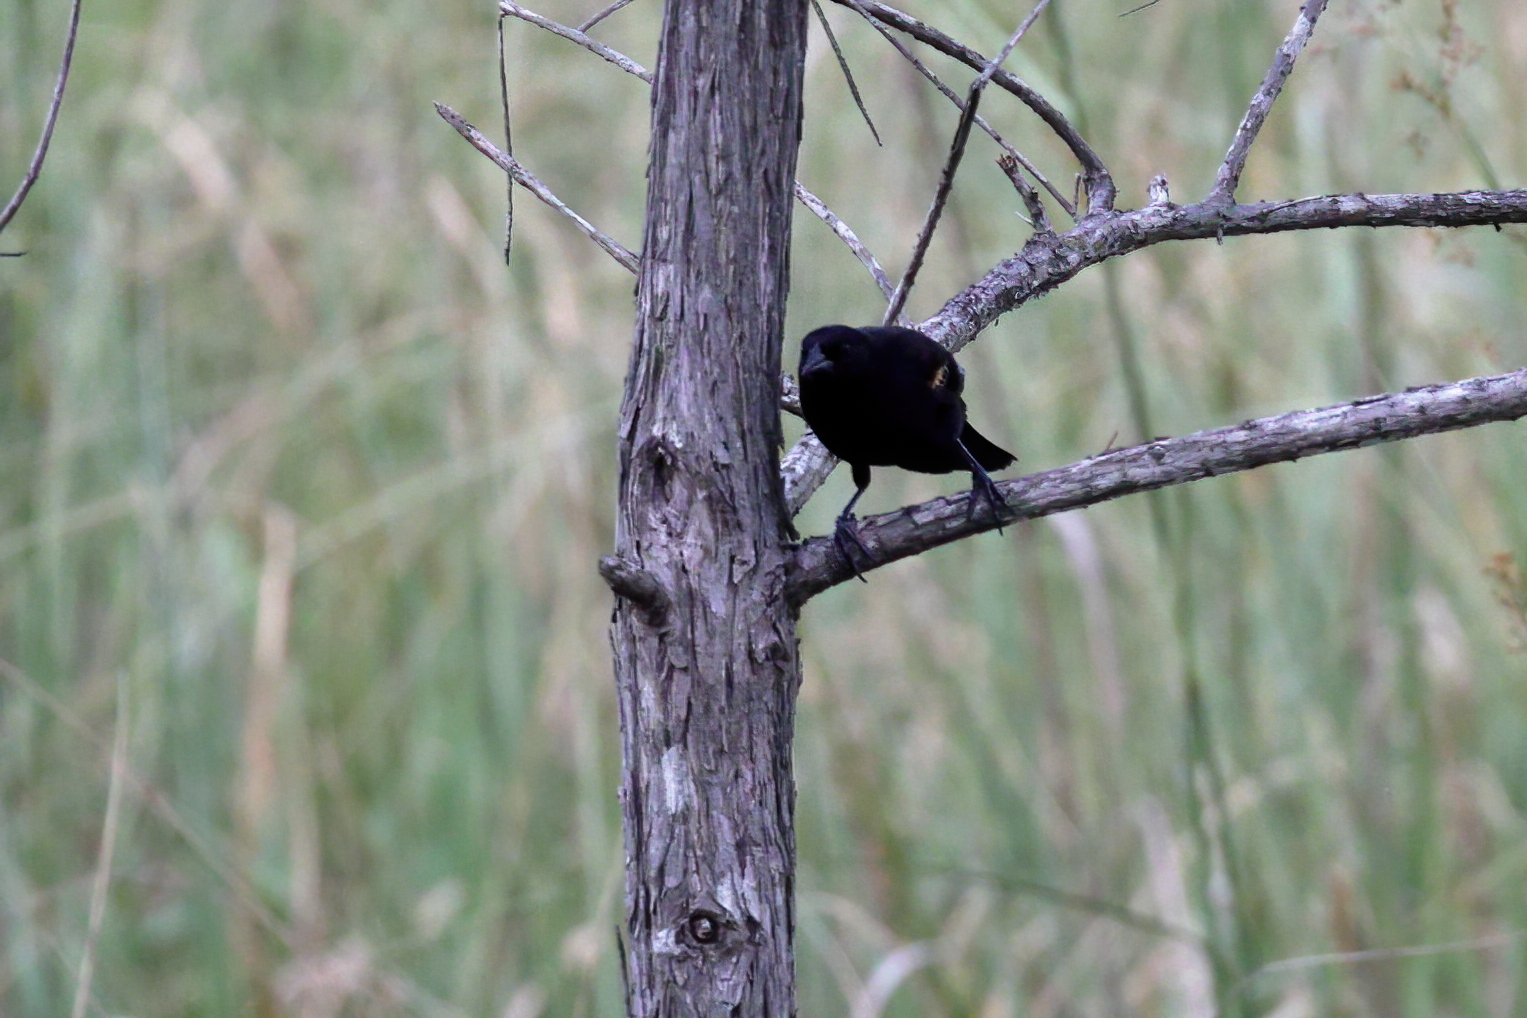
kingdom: Animalia
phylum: Chordata
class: Aves
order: Passeriformes
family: Icteridae
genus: Agelaius
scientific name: Agelaius phoeniceus
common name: Red-winged blackbird
